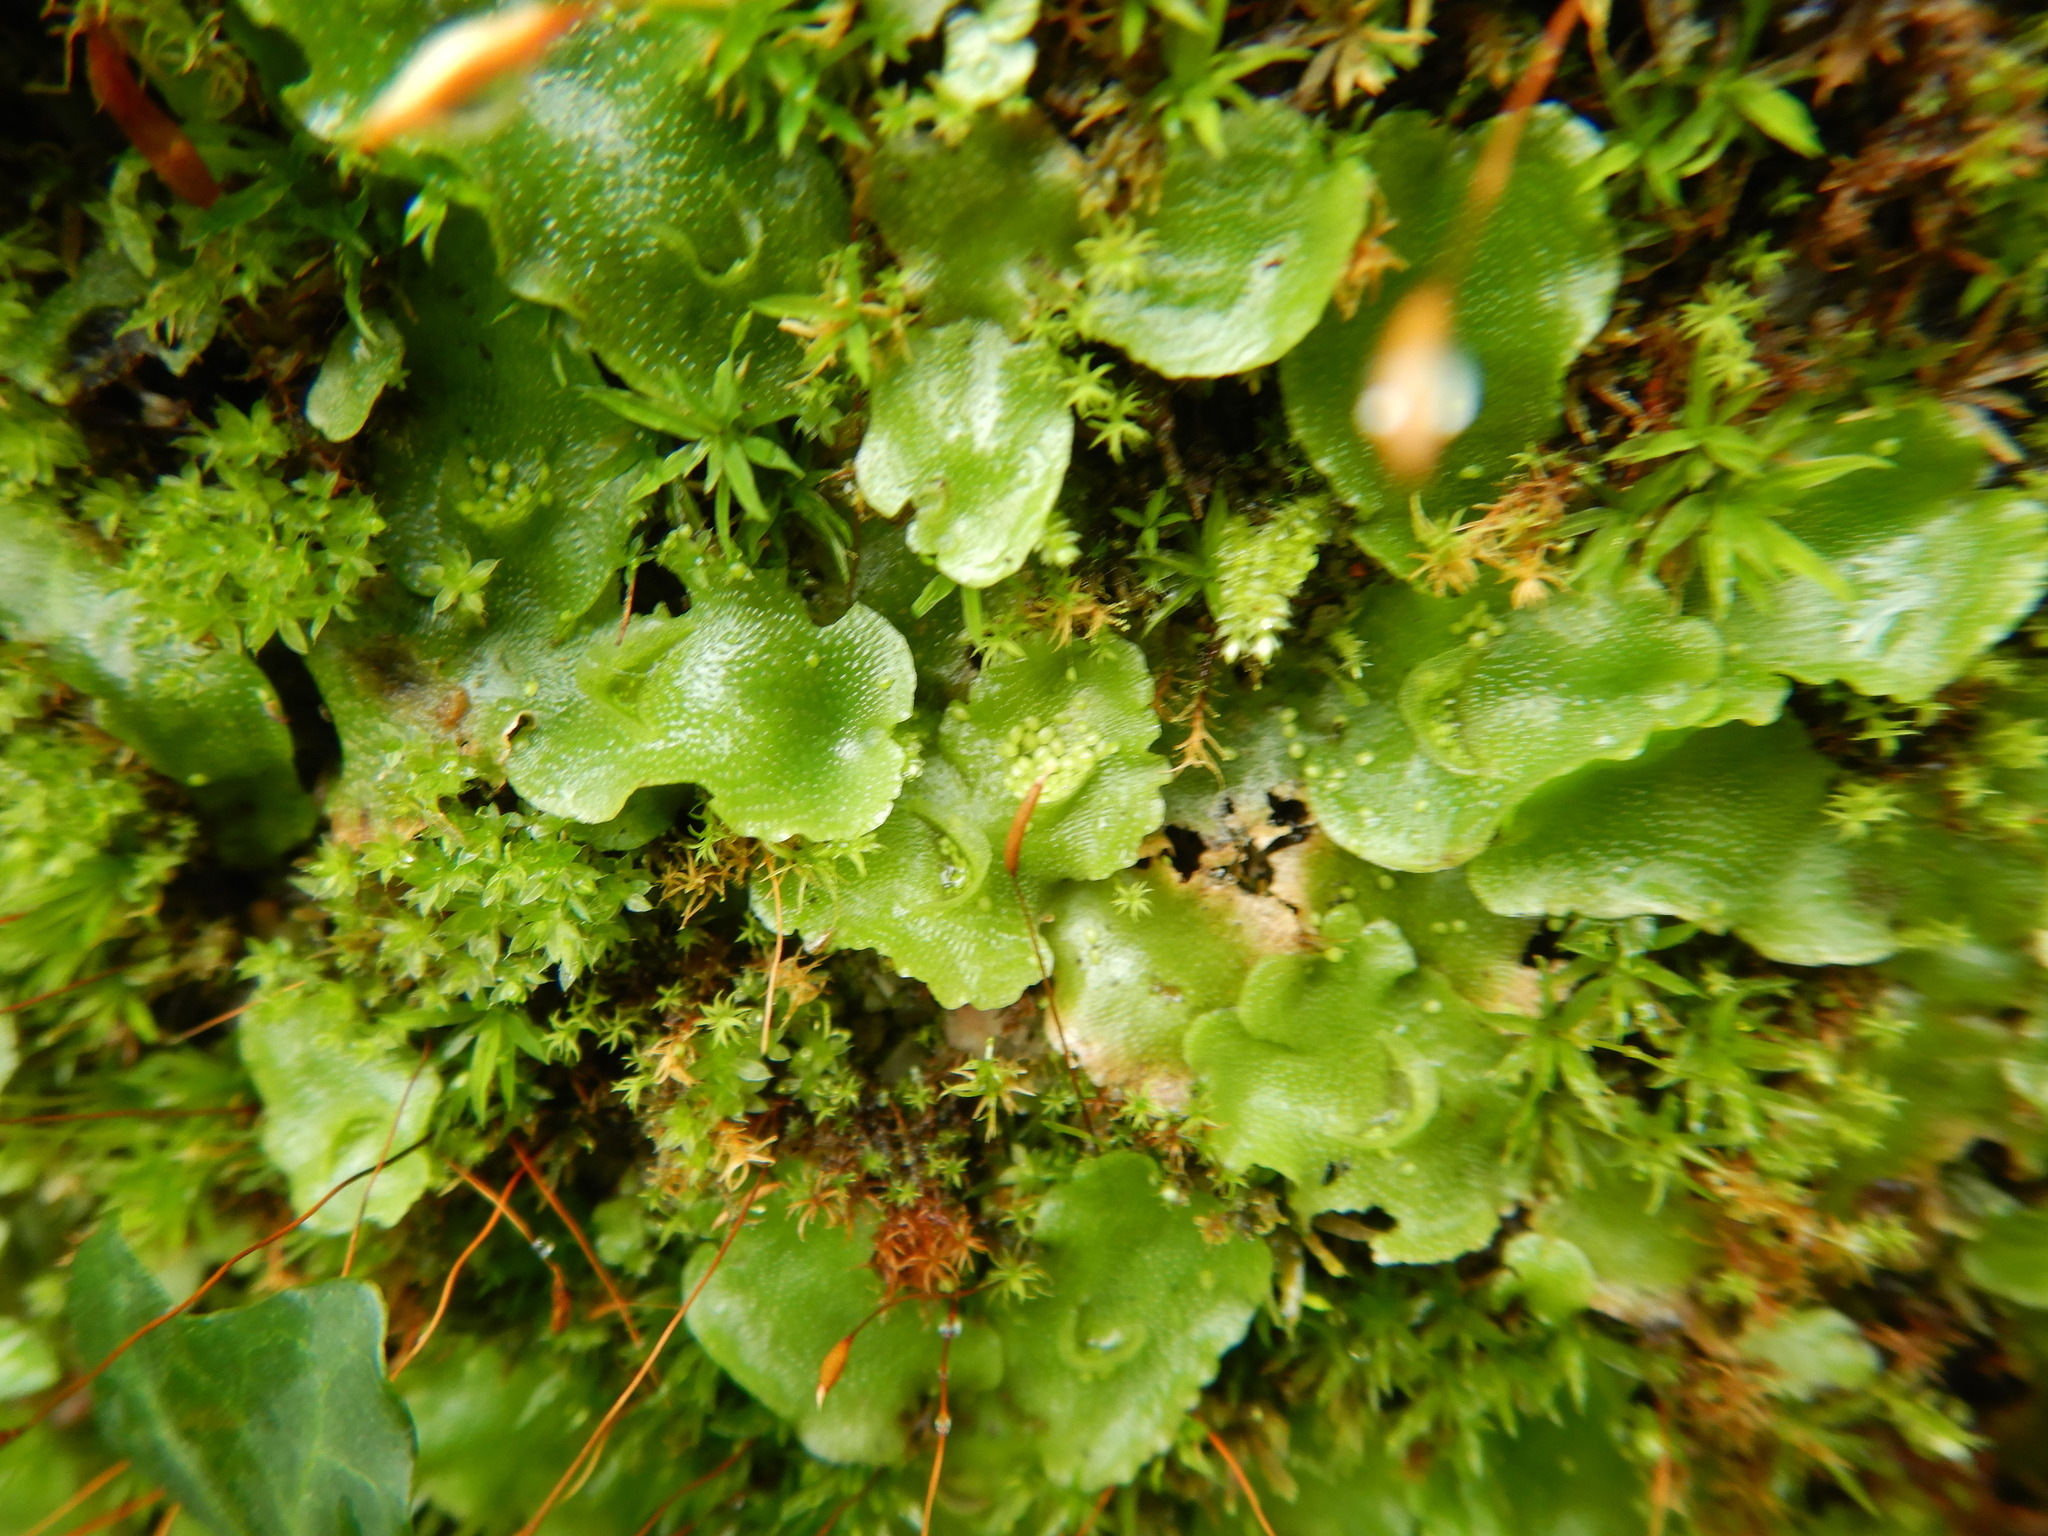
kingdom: Plantae
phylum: Marchantiophyta
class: Marchantiopsida
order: Lunulariales
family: Lunulariaceae
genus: Lunularia
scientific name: Lunularia cruciata
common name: Crescent-cup liverwort
